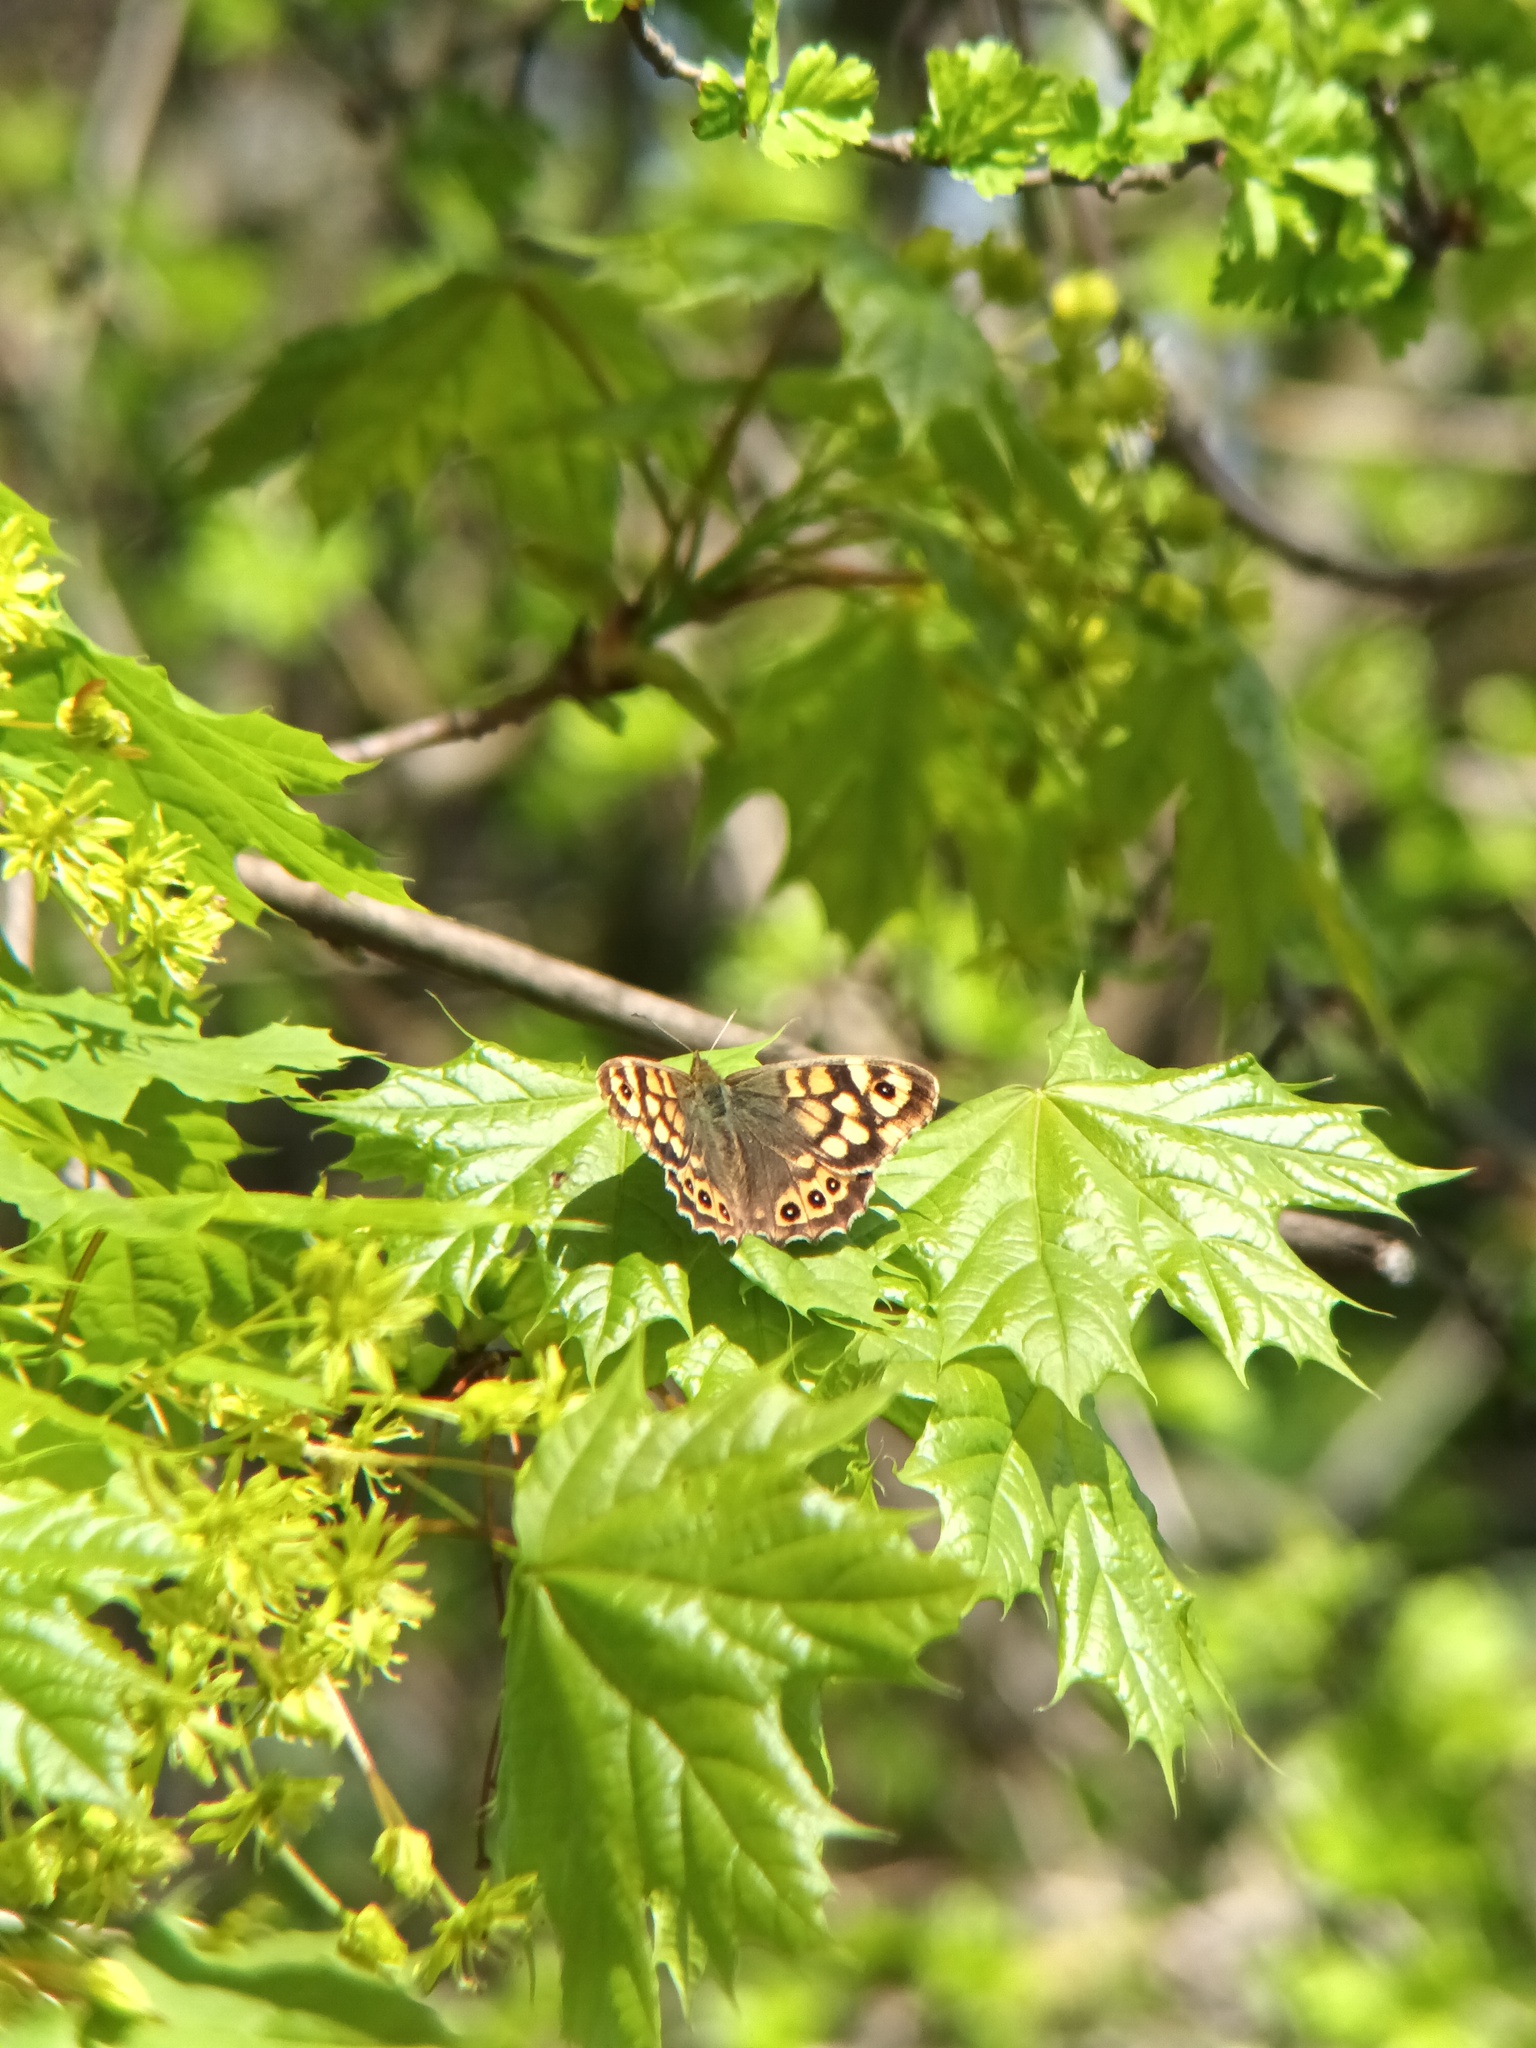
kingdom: Animalia
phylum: Arthropoda
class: Insecta
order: Lepidoptera
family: Nymphalidae
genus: Pararge
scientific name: Pararge aegeria
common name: Speckled wood
